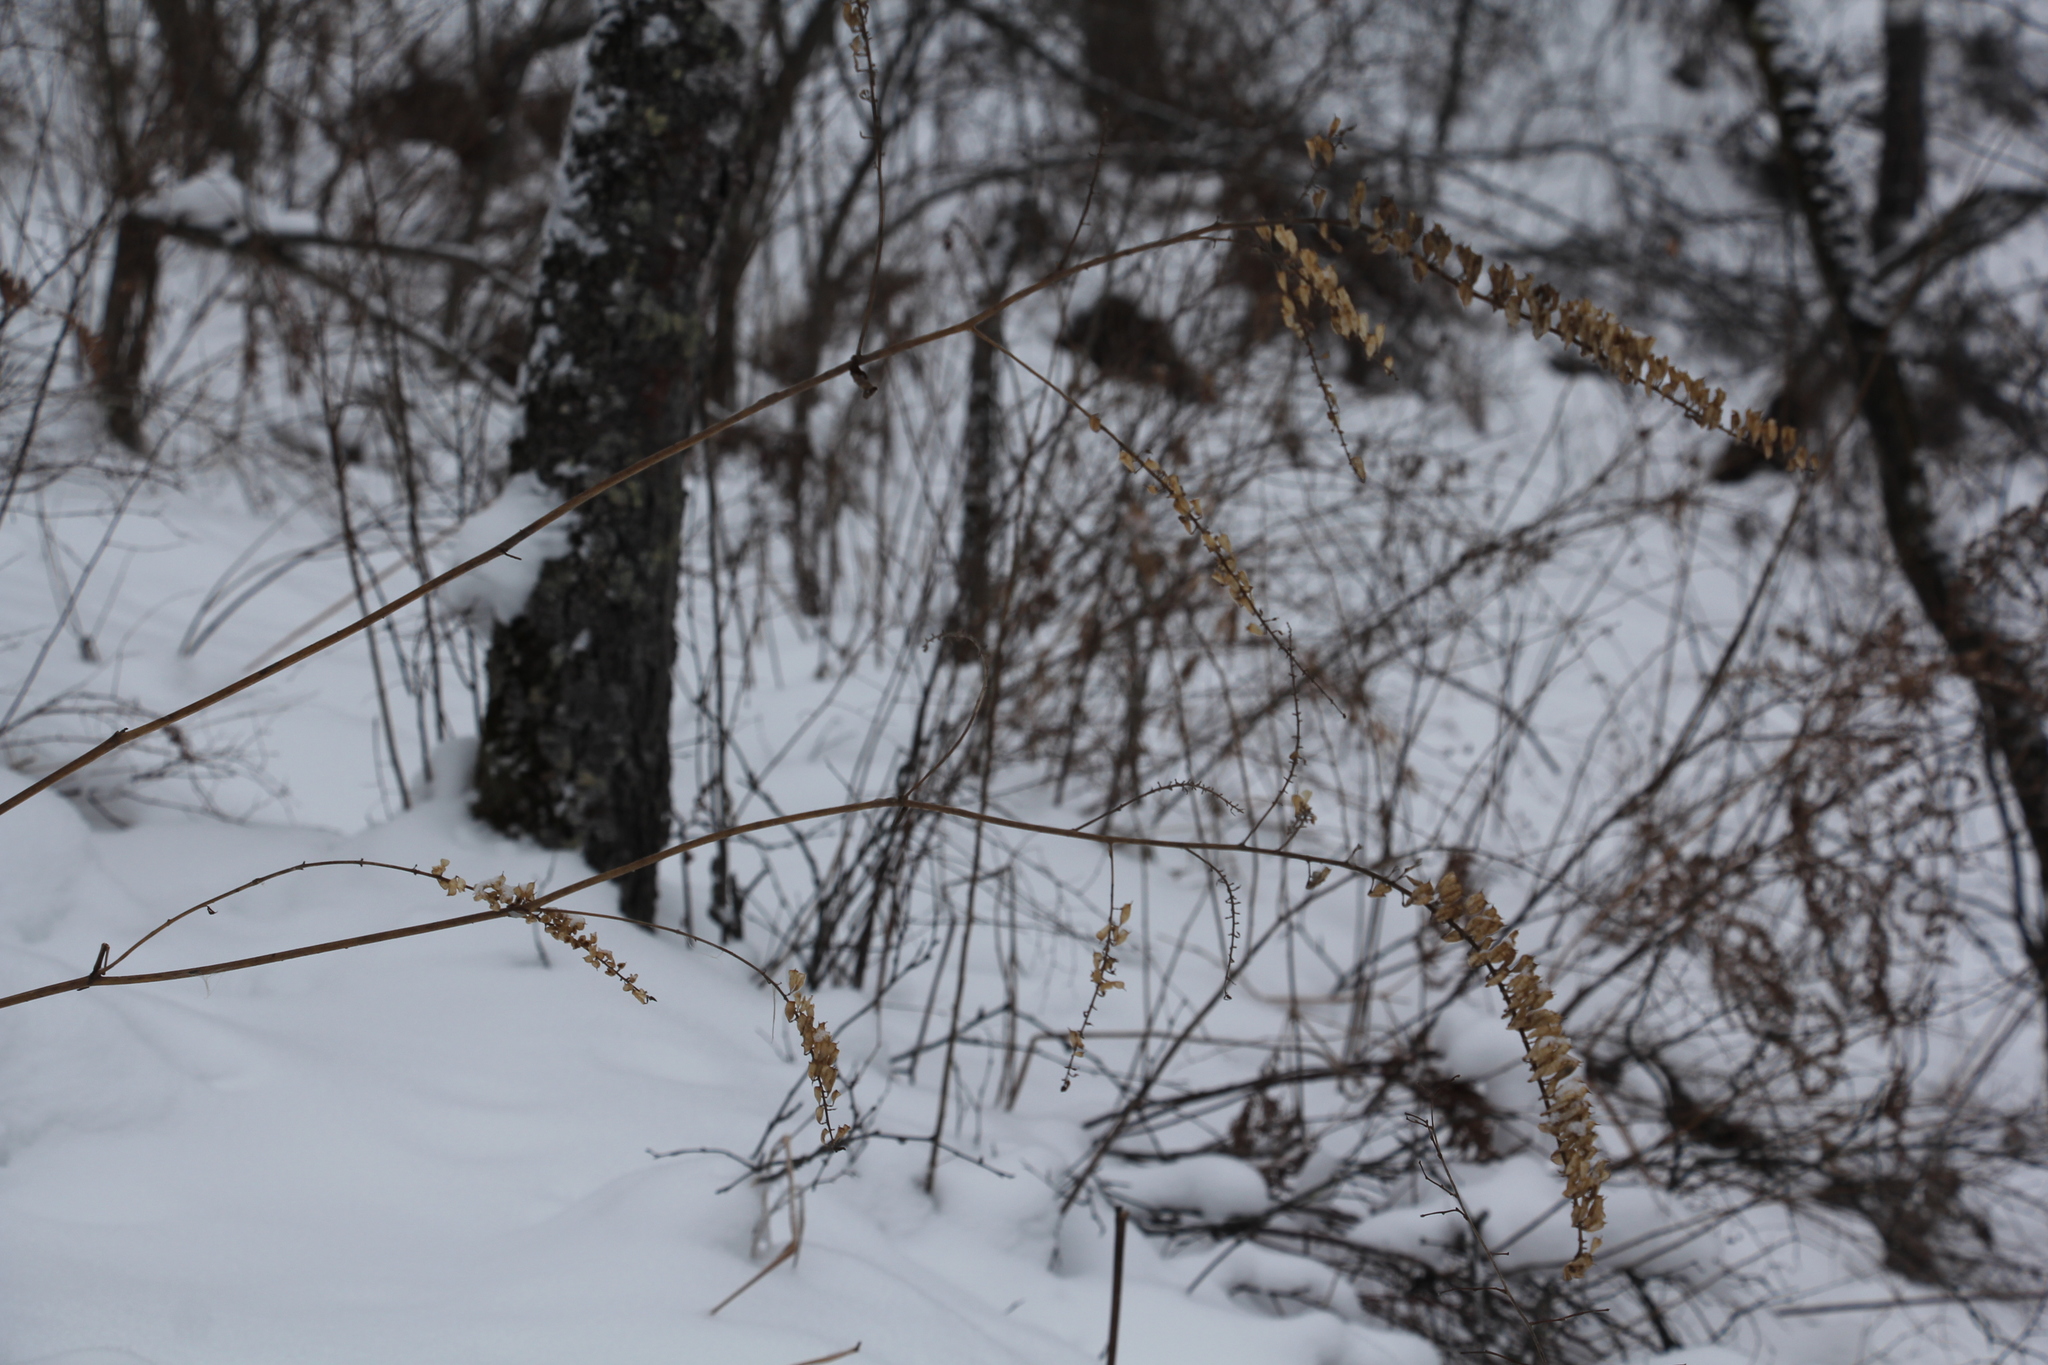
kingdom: Plantae
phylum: Tracheophyta
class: Magnoliopsida
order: Ranunculales
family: Ranunculaceae
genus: Actaea
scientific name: Actaea cimicifuga
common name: Chinese cimicifuga
